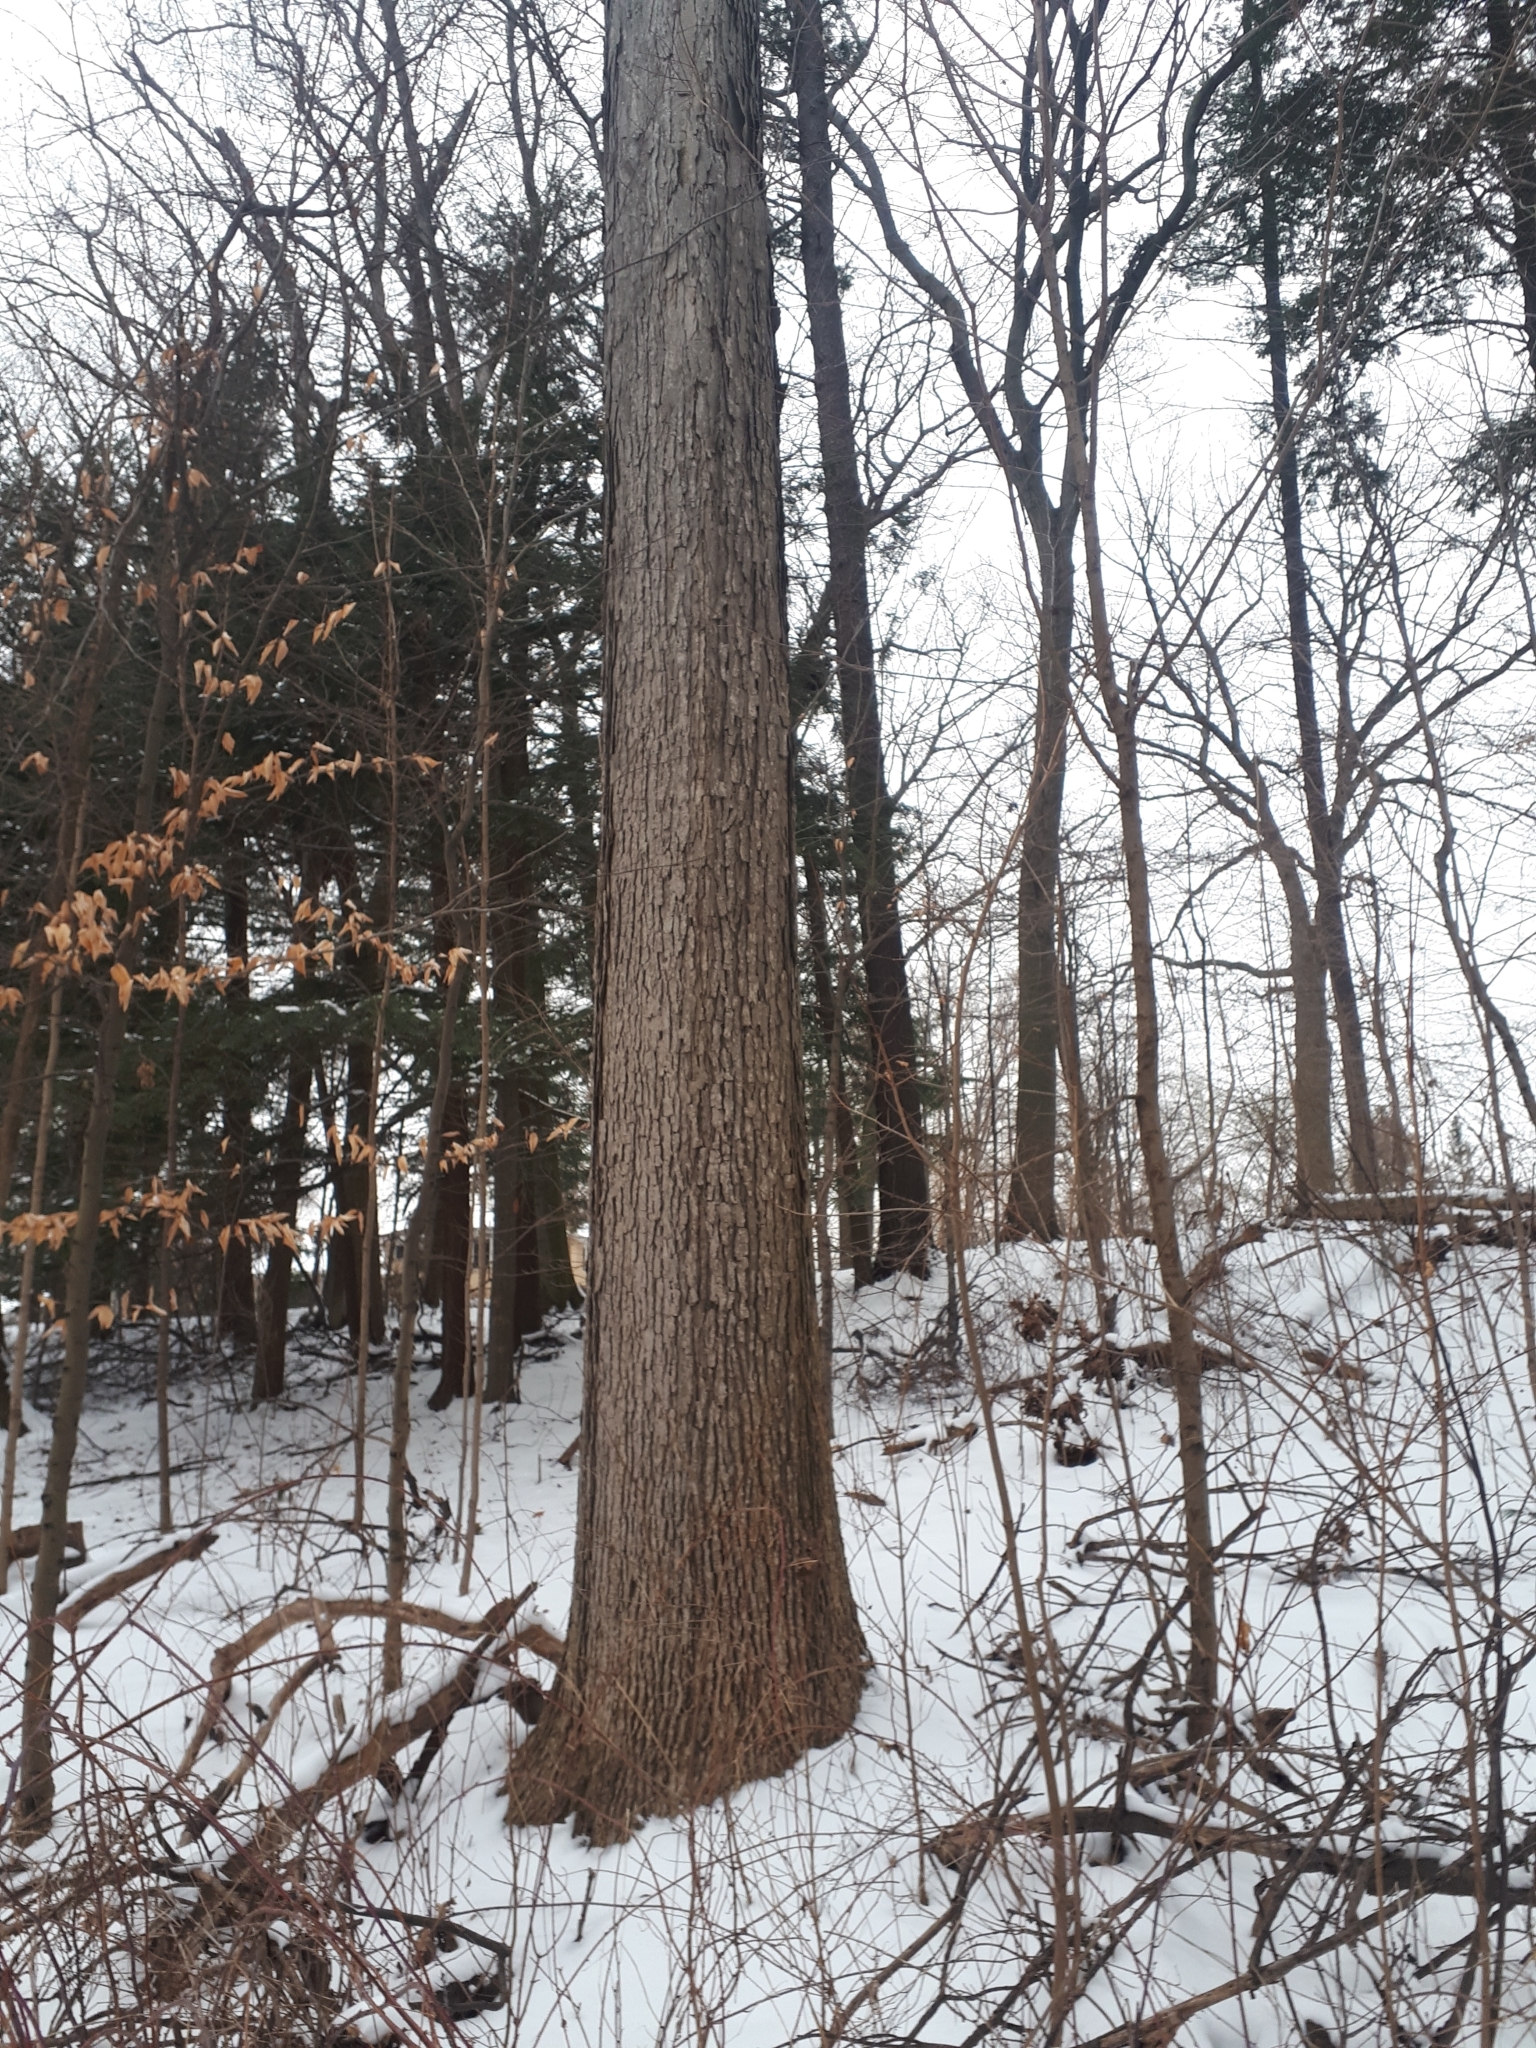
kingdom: Plantae
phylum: Tracheophyta
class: Magnoliopsida
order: Fagales
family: Fagaceae
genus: Quercus
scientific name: Quercus alba
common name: White oak
